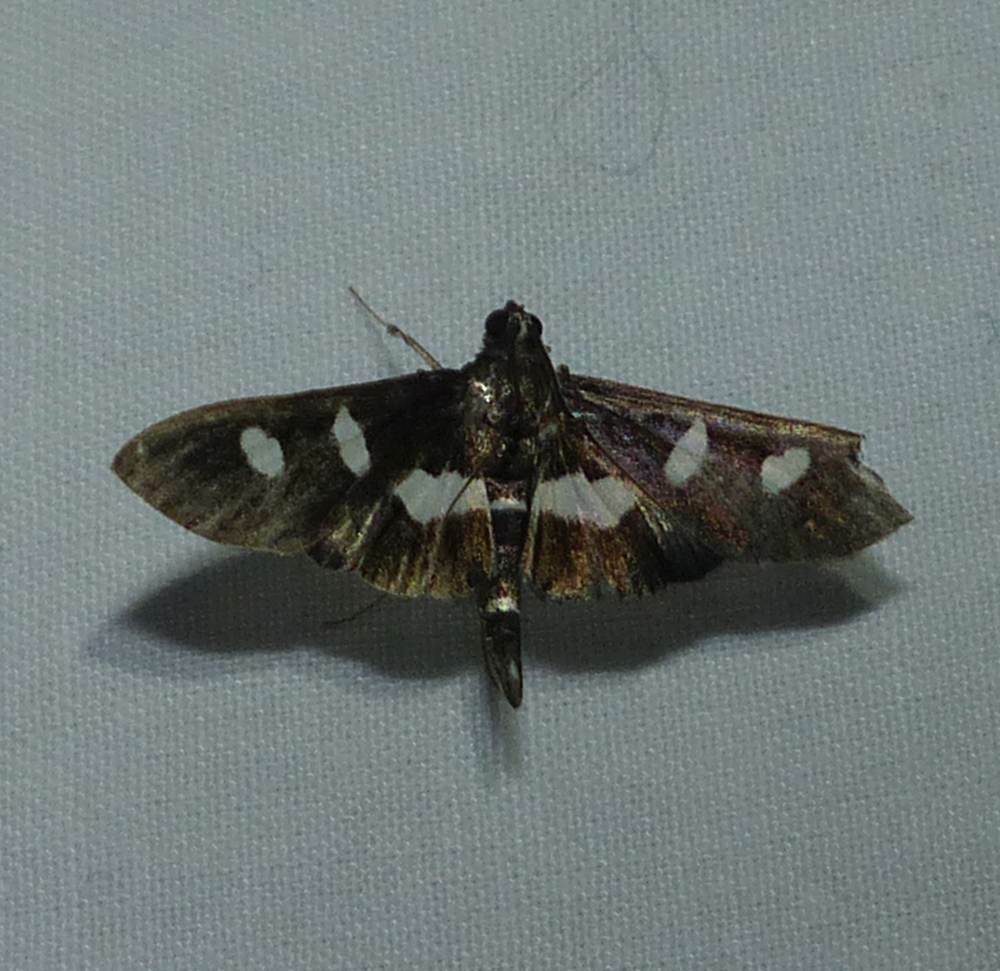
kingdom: Animalia
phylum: Arthropoda
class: Insecta
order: Lepidoptera
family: Crambidae
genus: Desmia
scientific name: Desmia
